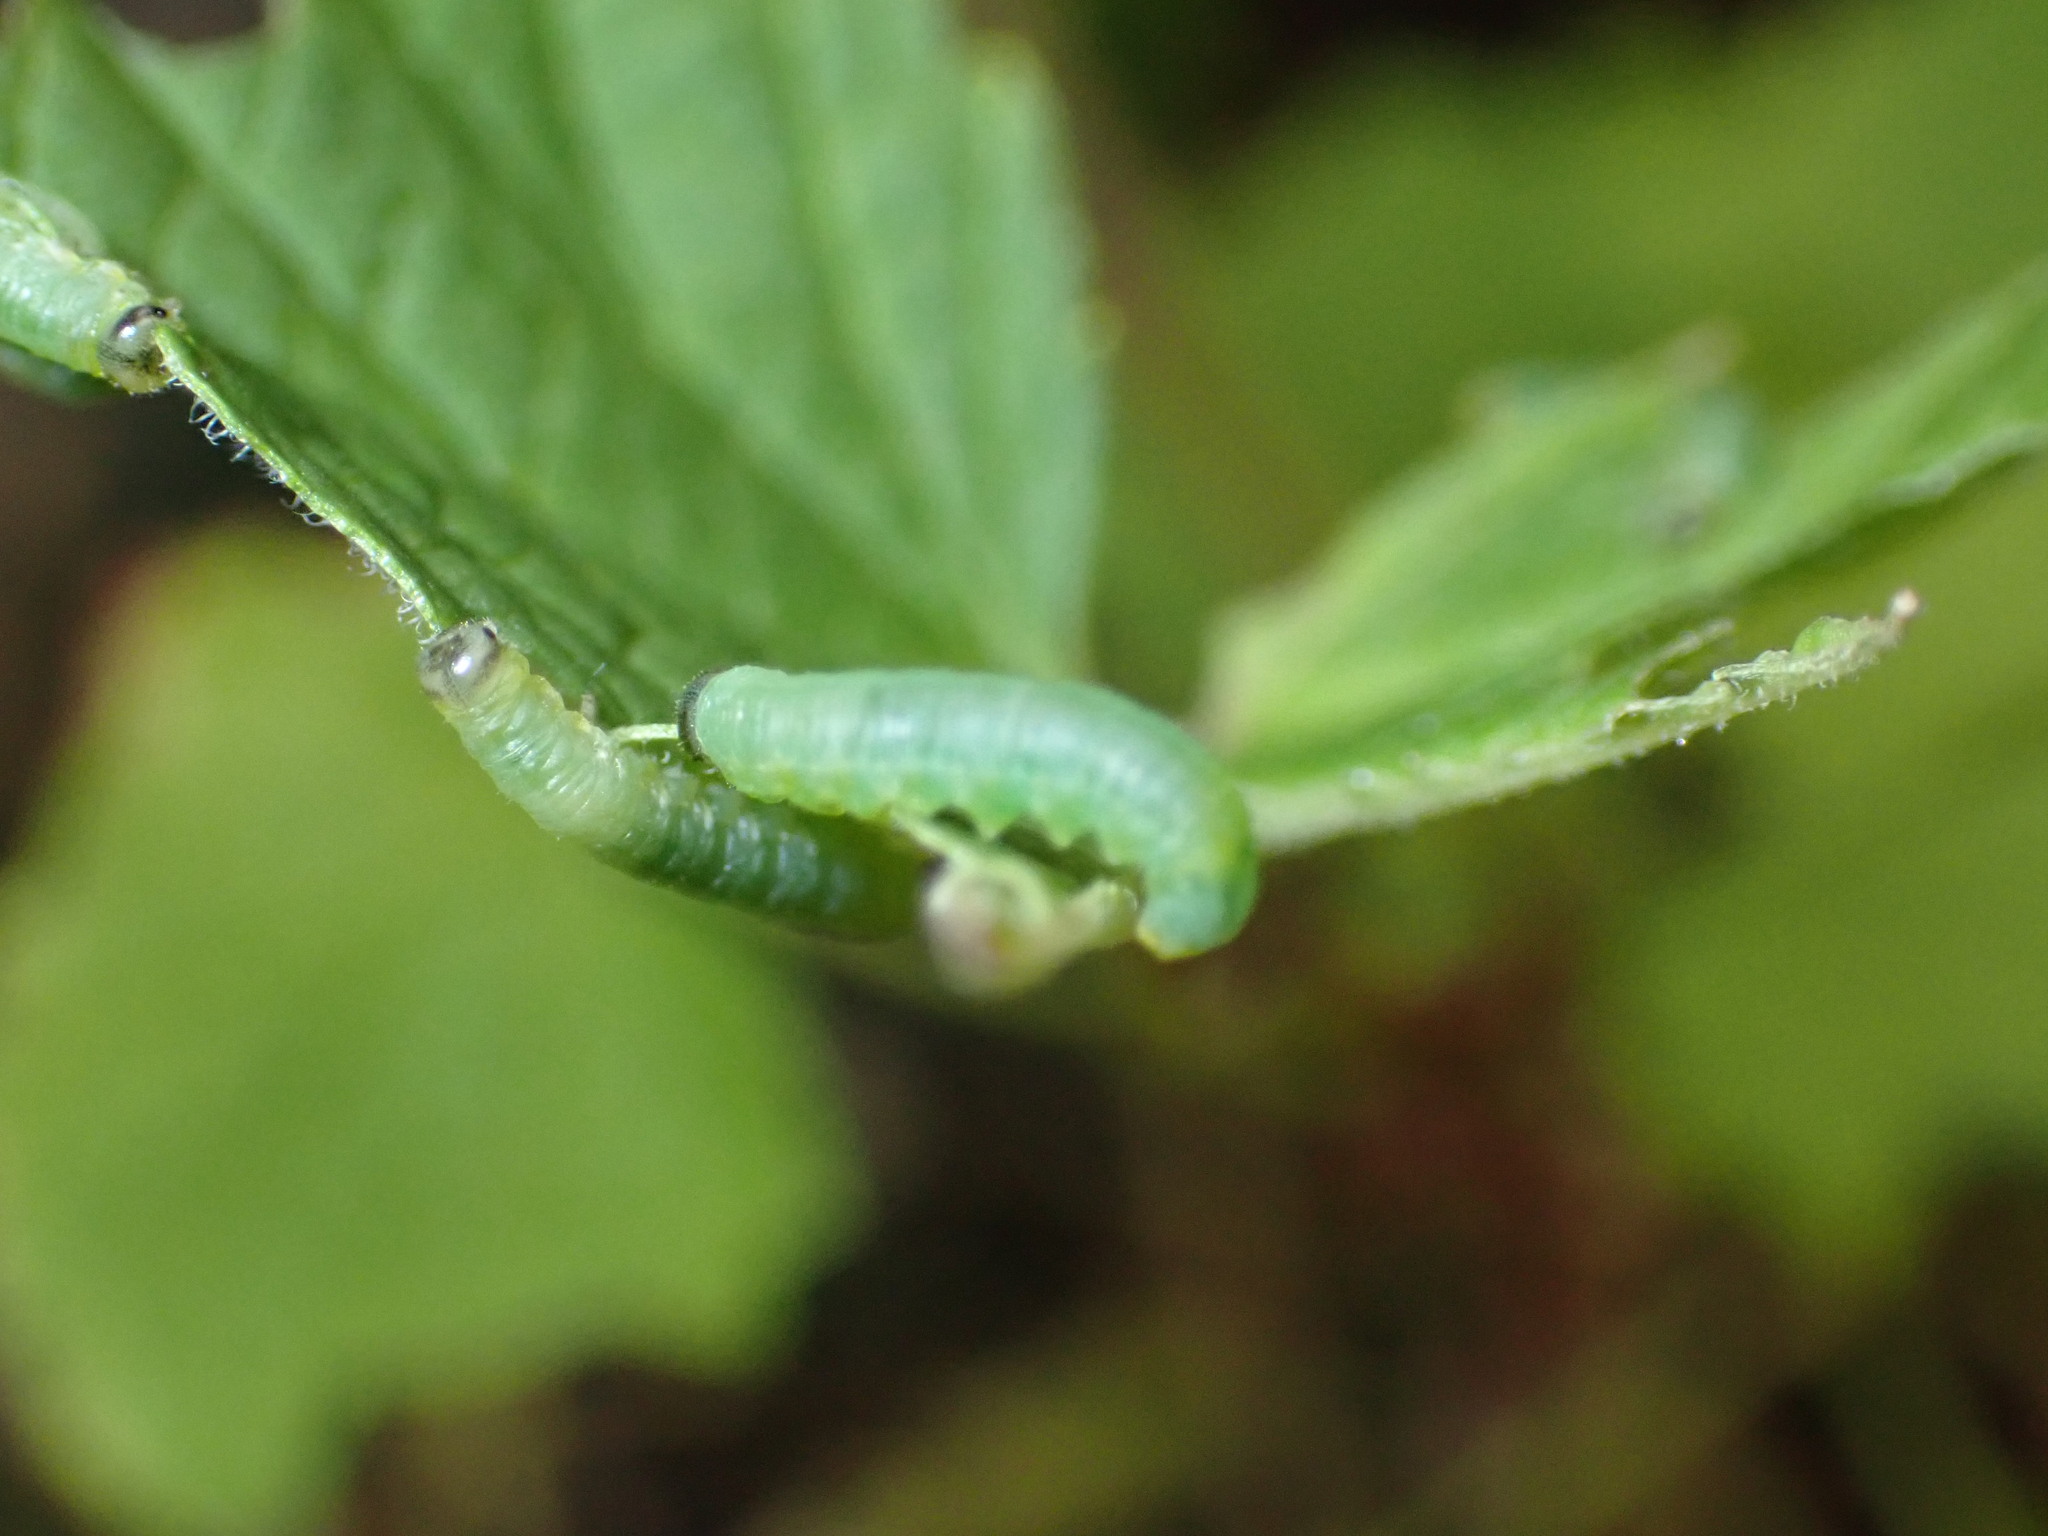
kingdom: Animalia
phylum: Arthropoda
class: Insecta
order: Hymenoptera
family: Tenthredinidae
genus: Pristiphora
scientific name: Pristiphora appendiculata
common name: Tenthredid wasp
